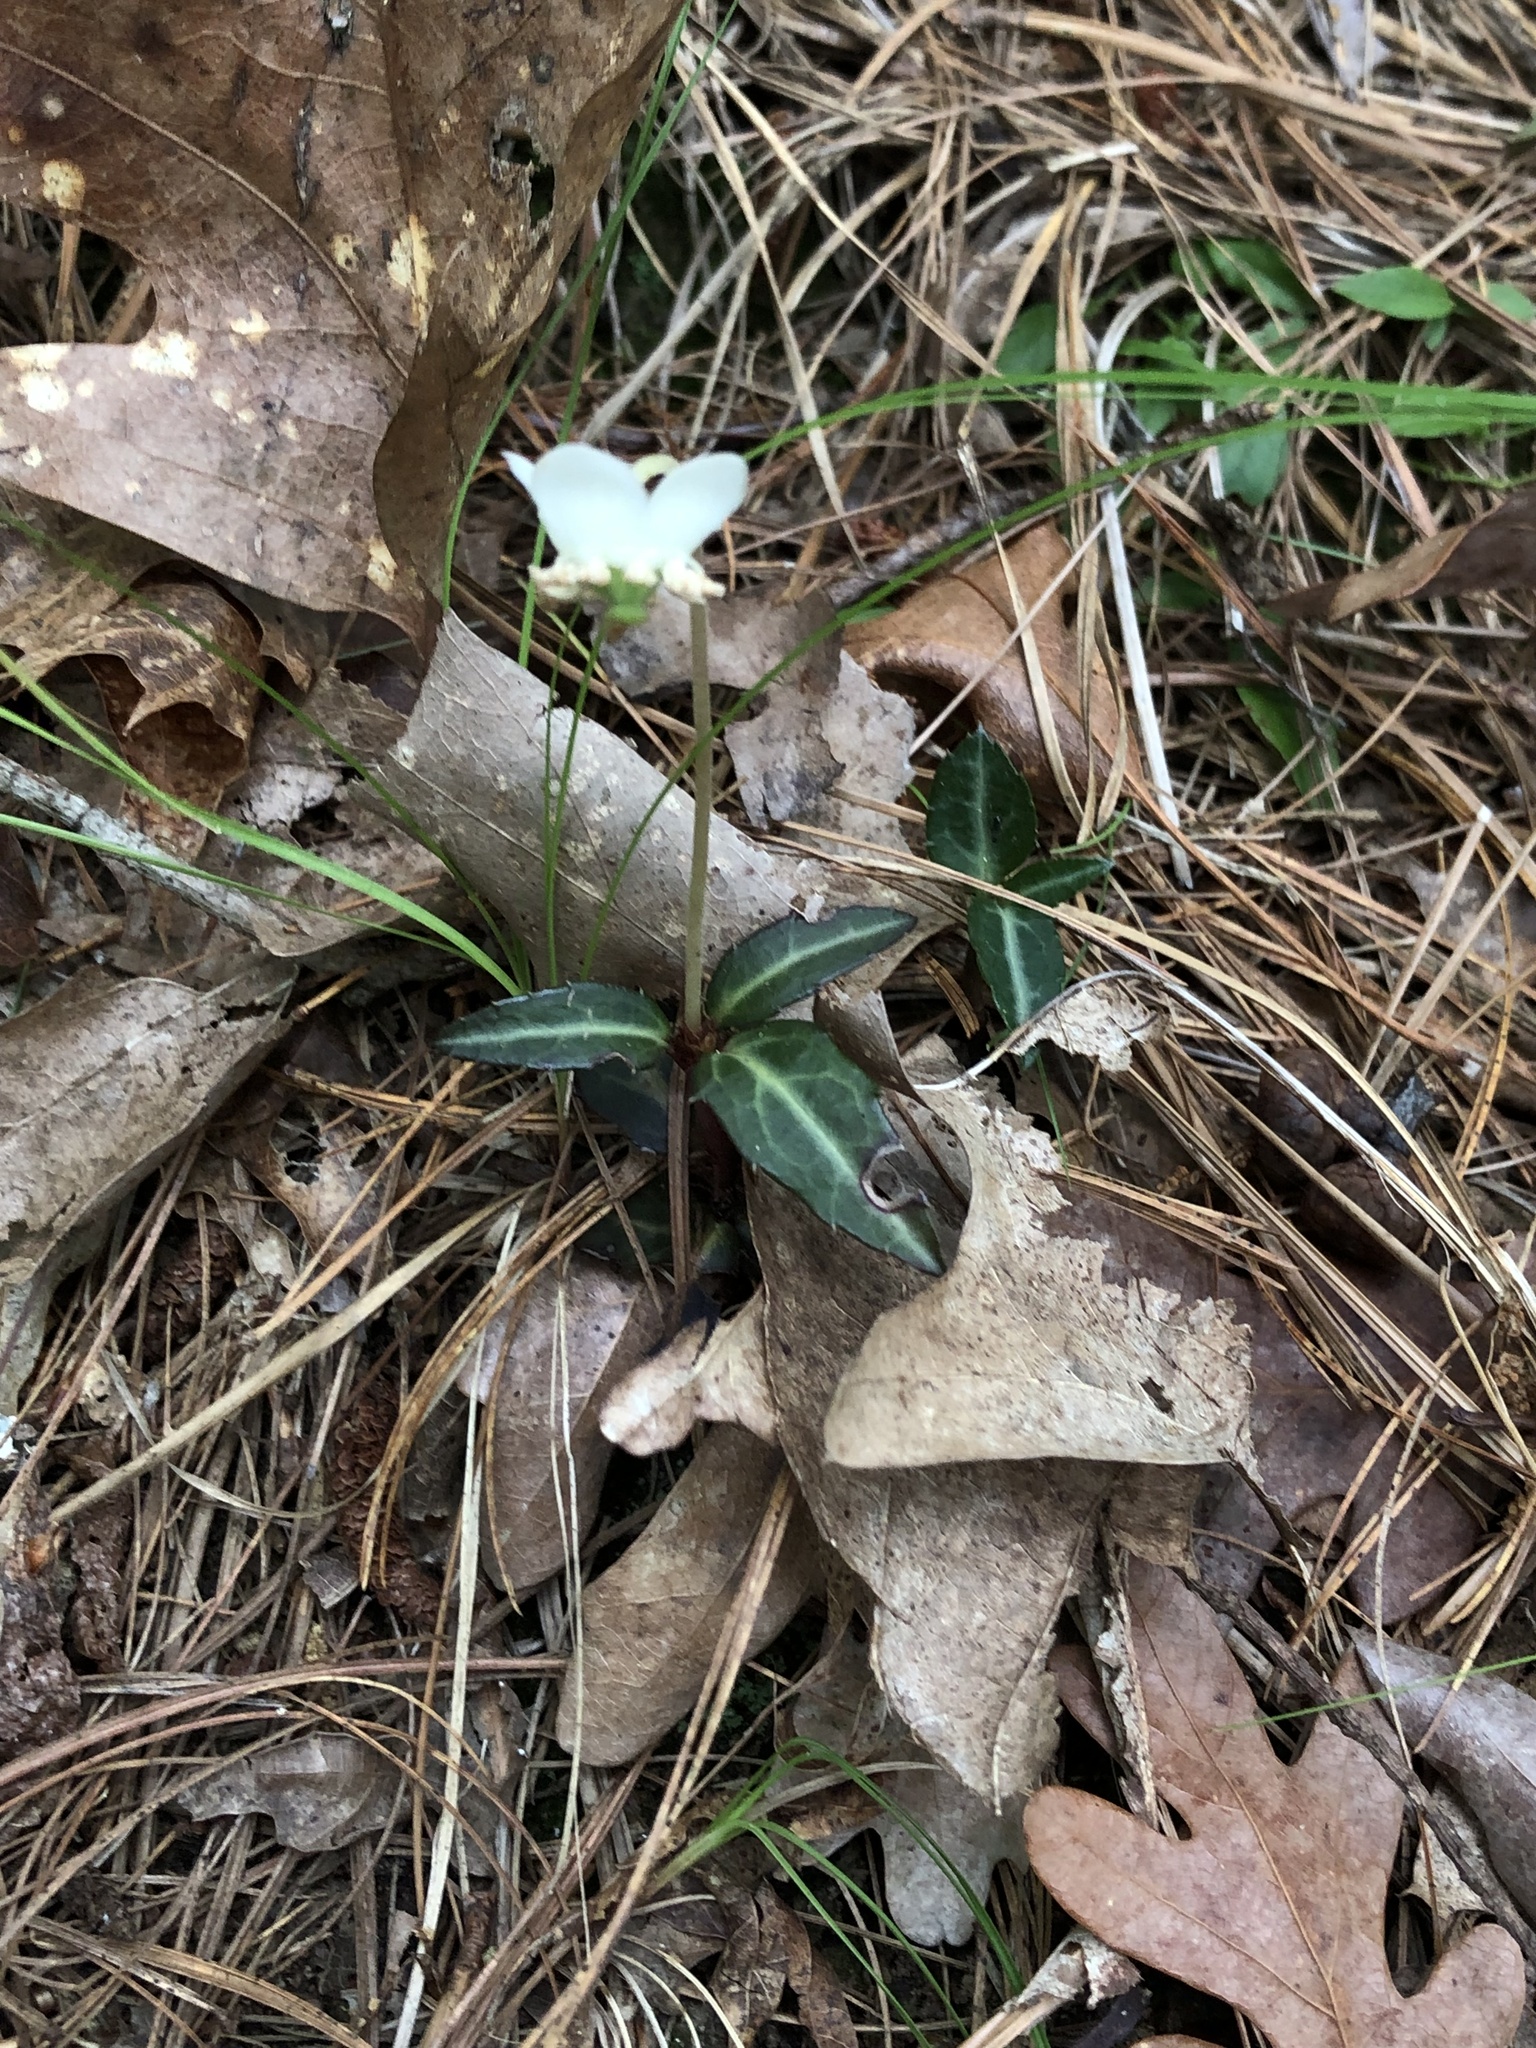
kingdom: Plantae
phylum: Tracheophyta
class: Magnoliopsida
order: Ericales
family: Ericaceae
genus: Chimaphila
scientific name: Chimaphila maculata
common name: Spotted pipsissewa
